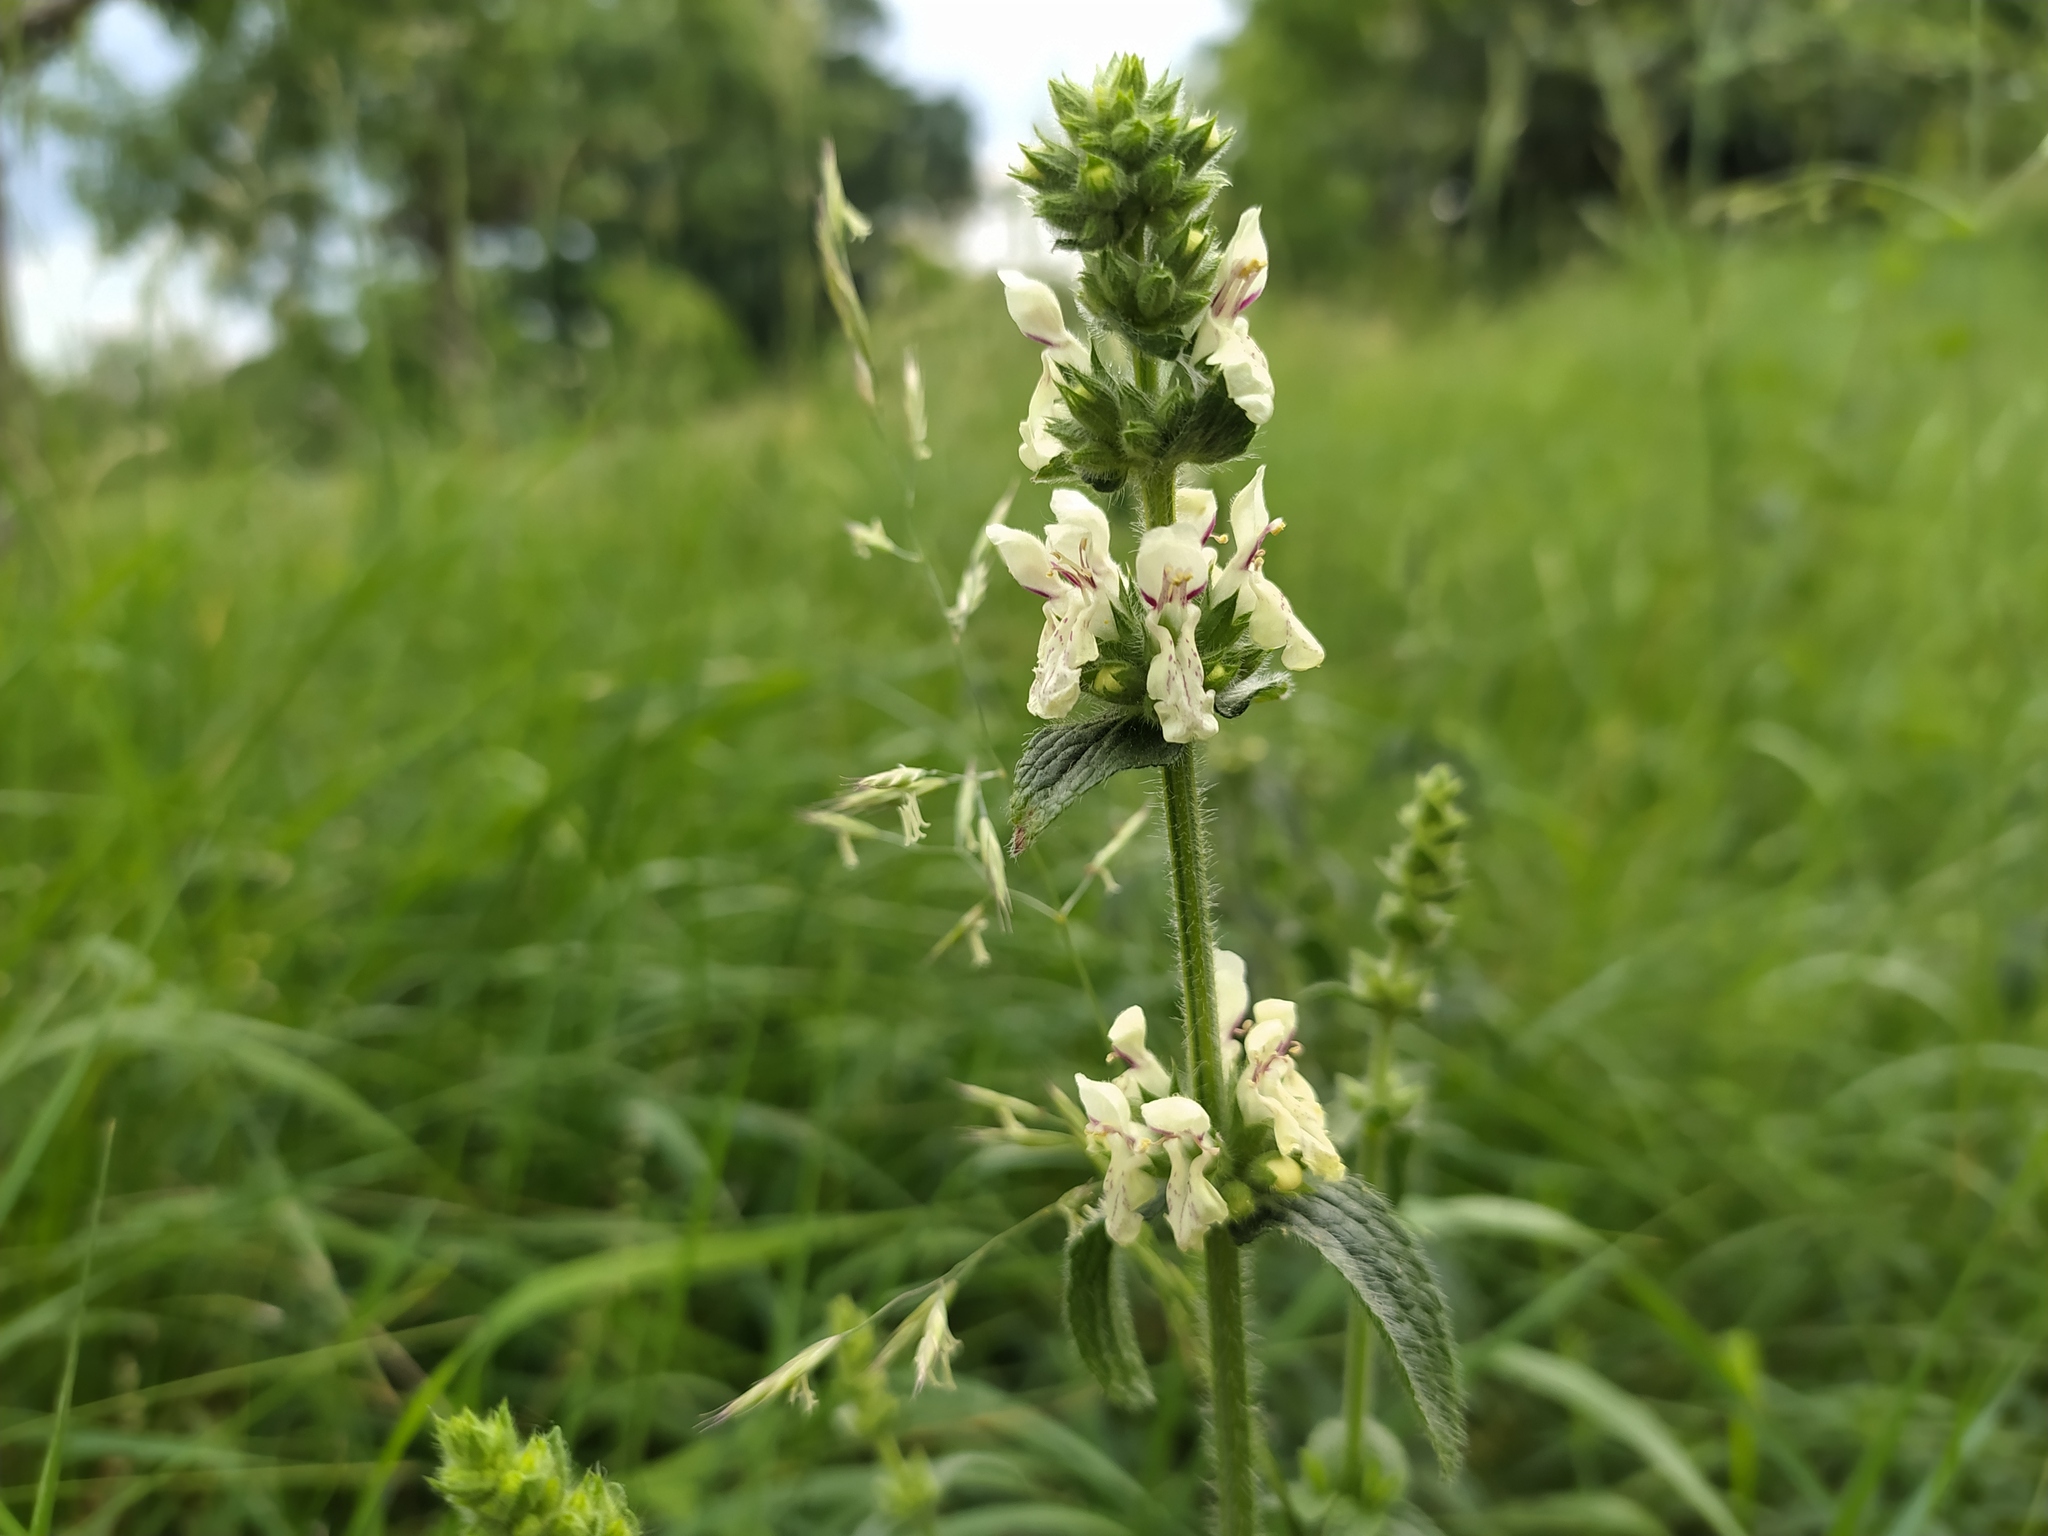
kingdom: Plantae
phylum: Tracheophyta
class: Magnoliopsida
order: Lamiales
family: Lamiaceae
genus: Stachys
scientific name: Stachys recta
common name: Perennial yellow-woundwort
